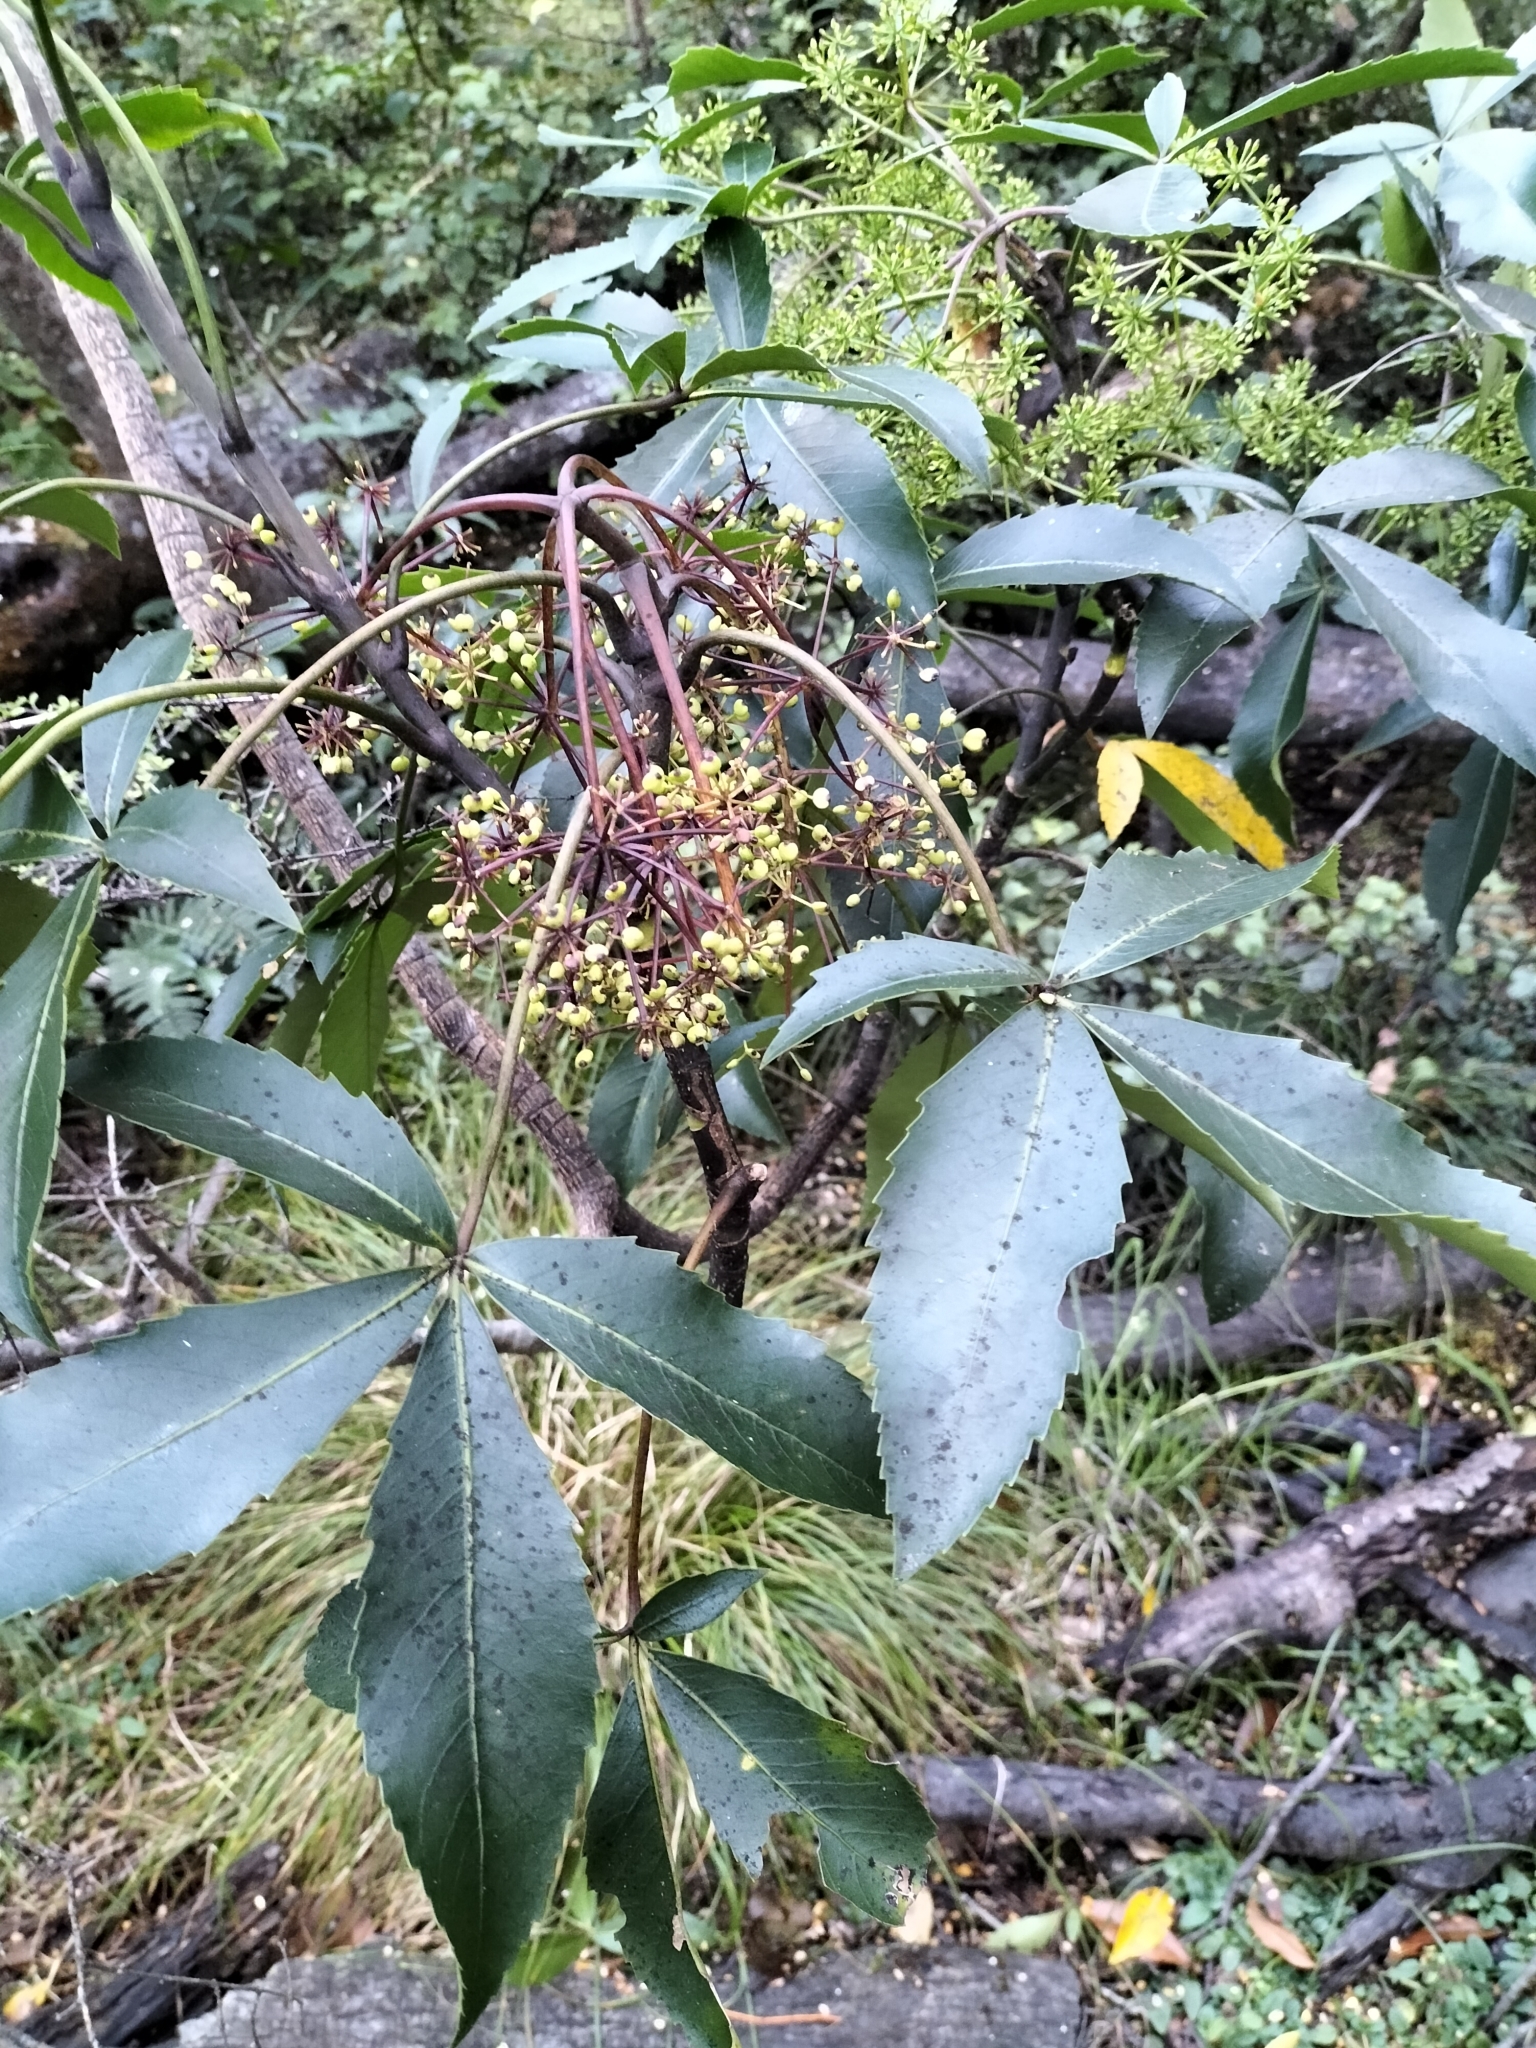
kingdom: Plantae
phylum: Tracheophyta
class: Magnoliopsida
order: Apiales
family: Araliaceae
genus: Neopanax
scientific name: Neopanax colensoi
